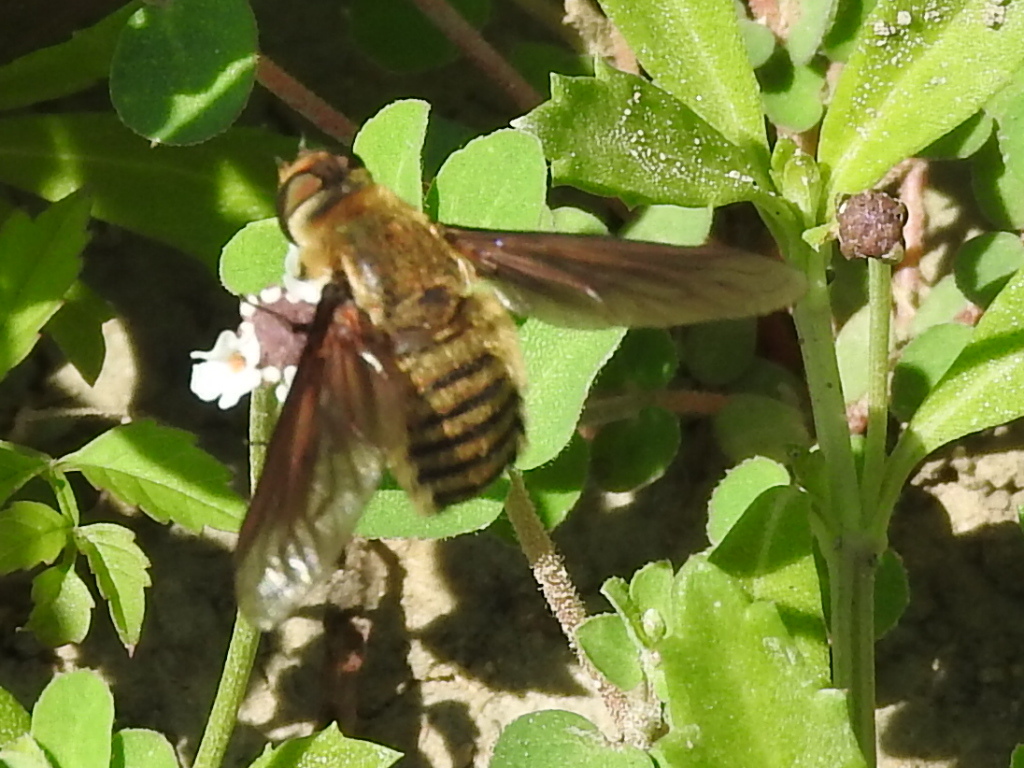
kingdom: Animalia
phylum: Arthropoda
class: Insecta
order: Diptera
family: Bombyliidae
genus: Poecilanthrax
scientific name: Poecilanthrax lucifer
